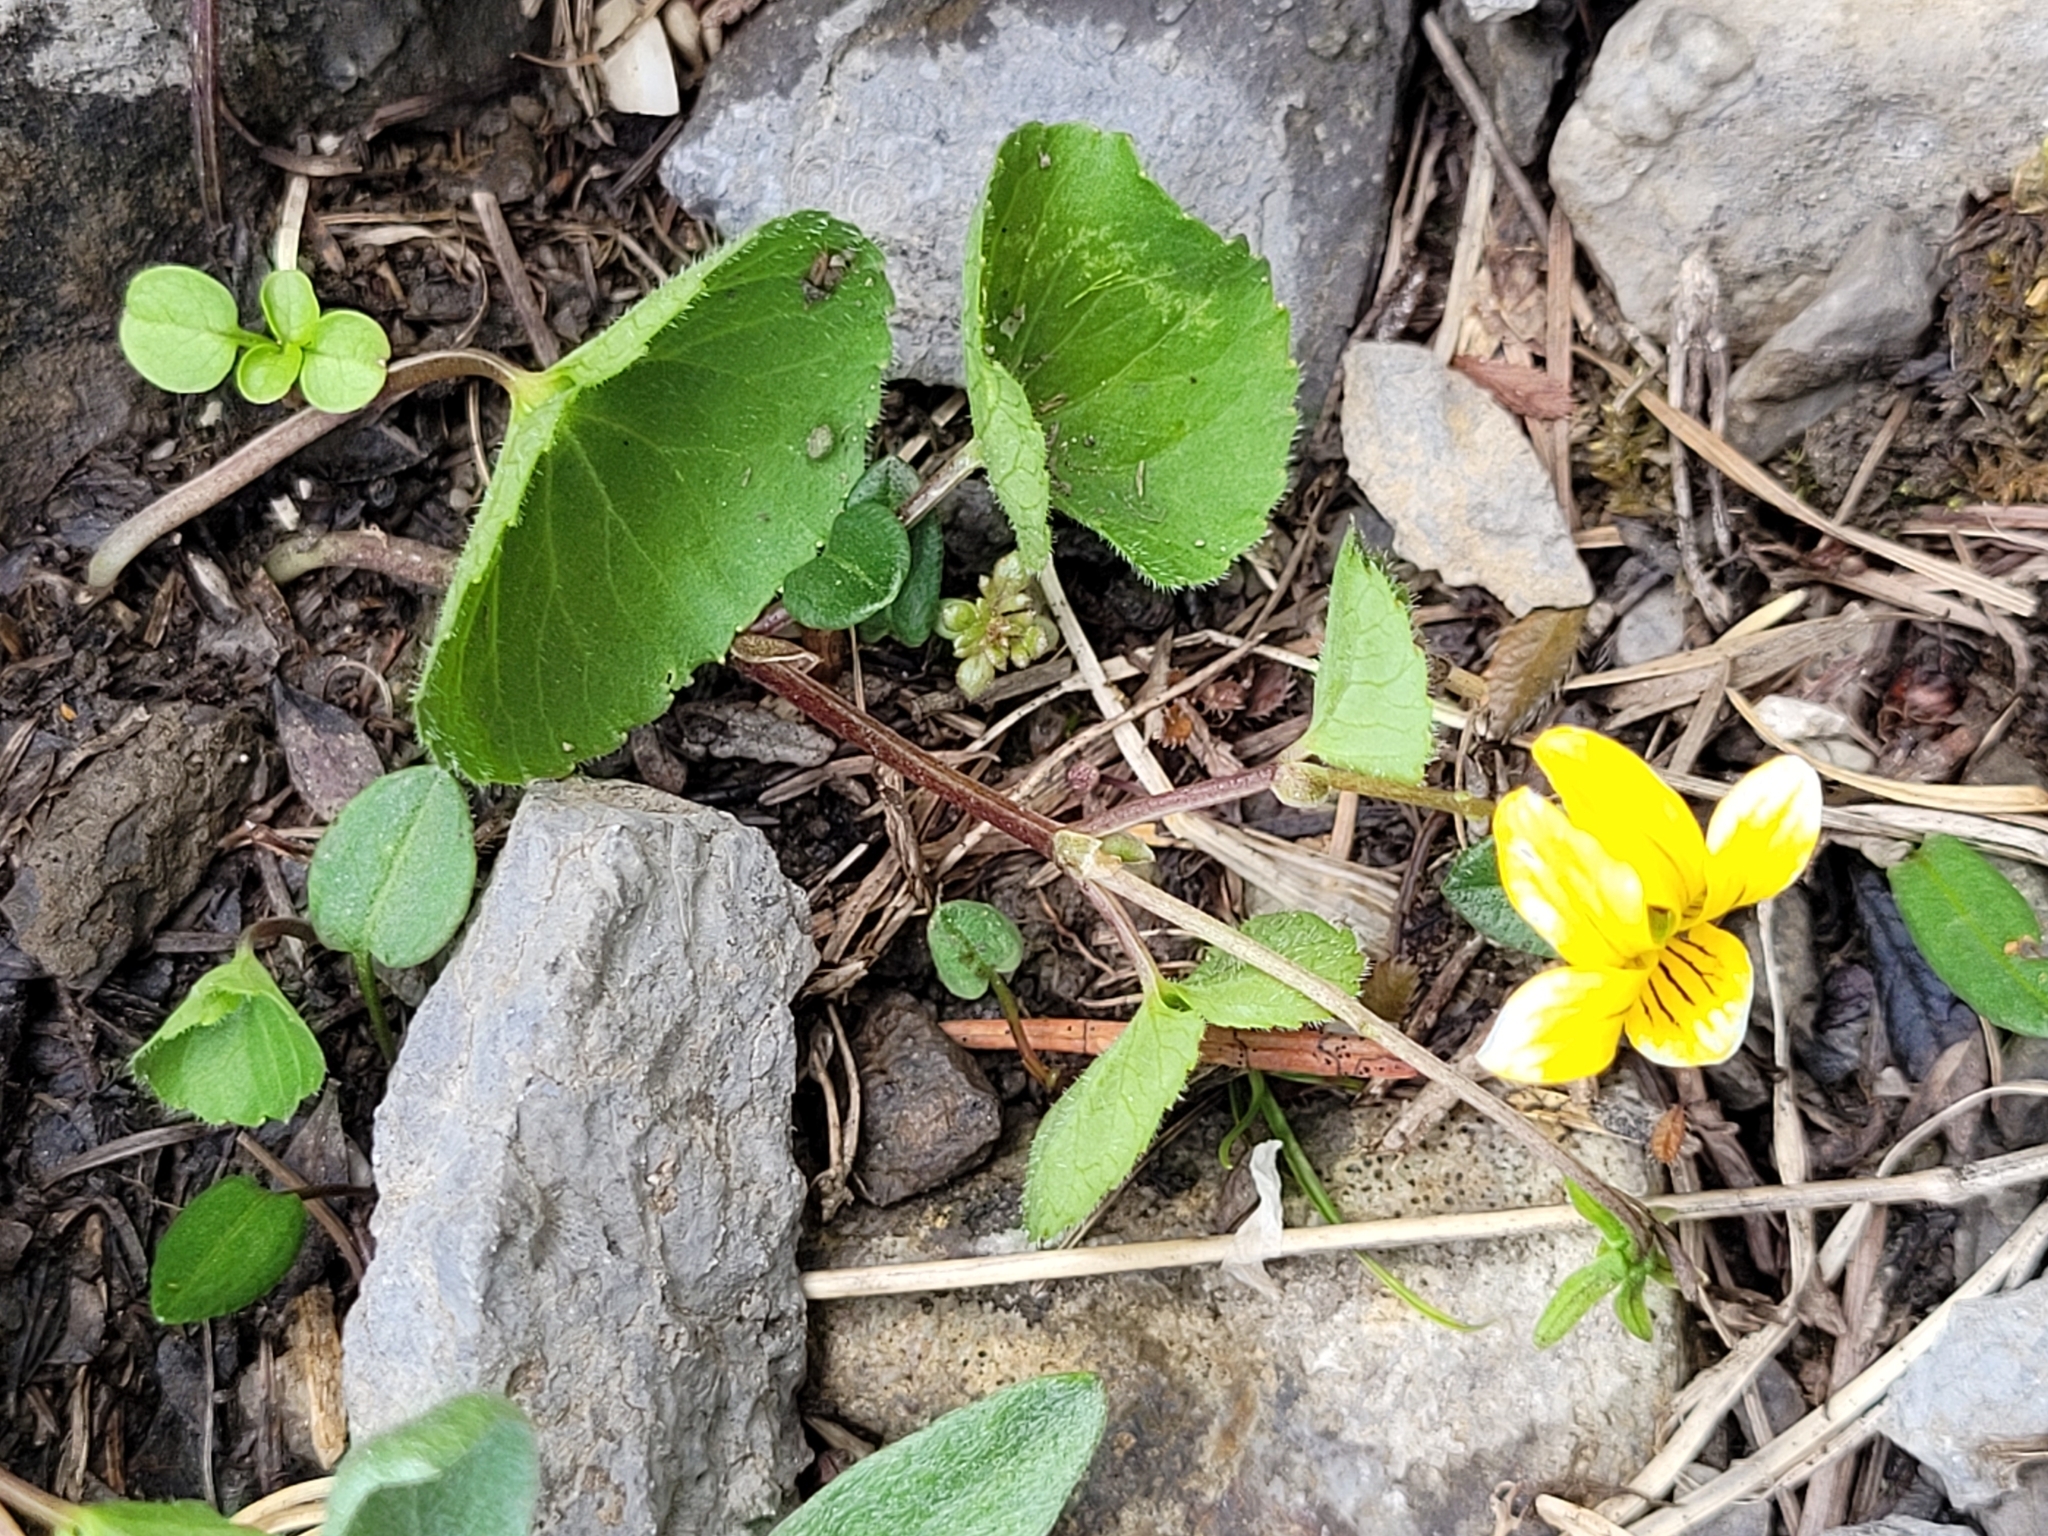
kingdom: Plantae
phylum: Tracheophyta
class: Magnoliopsida
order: Malpighiales
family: Violaceae
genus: Viola
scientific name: Viola biflora
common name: Alpine yellow violet
